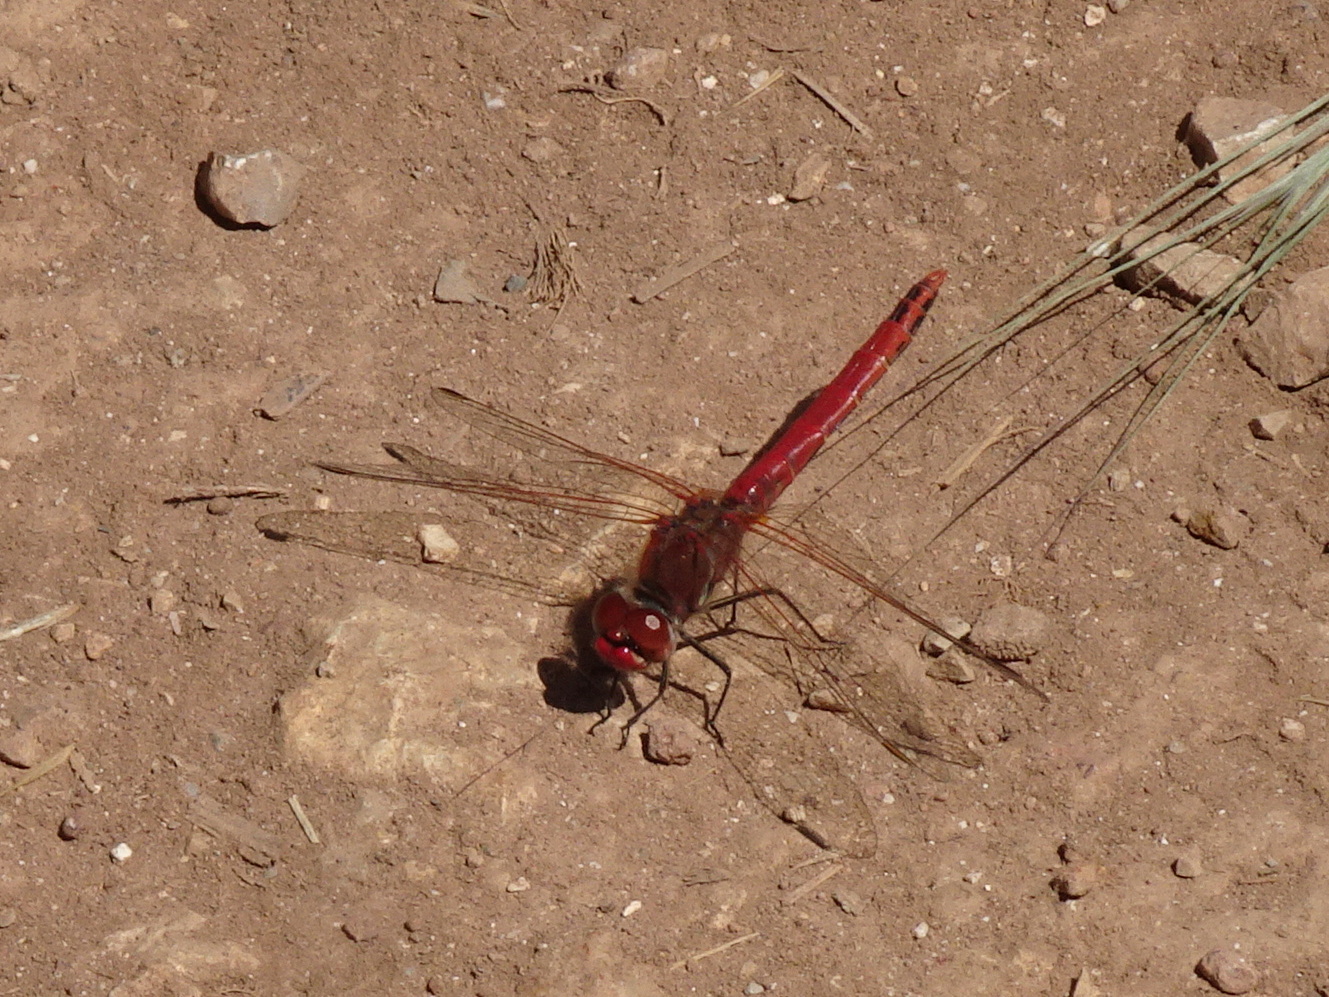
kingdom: Animalia
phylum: Arthropoda
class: Insecta
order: Odonata
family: Libellulidae
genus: Sympetrum
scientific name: Sympetrum fonscolombii
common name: Red-veined darter
